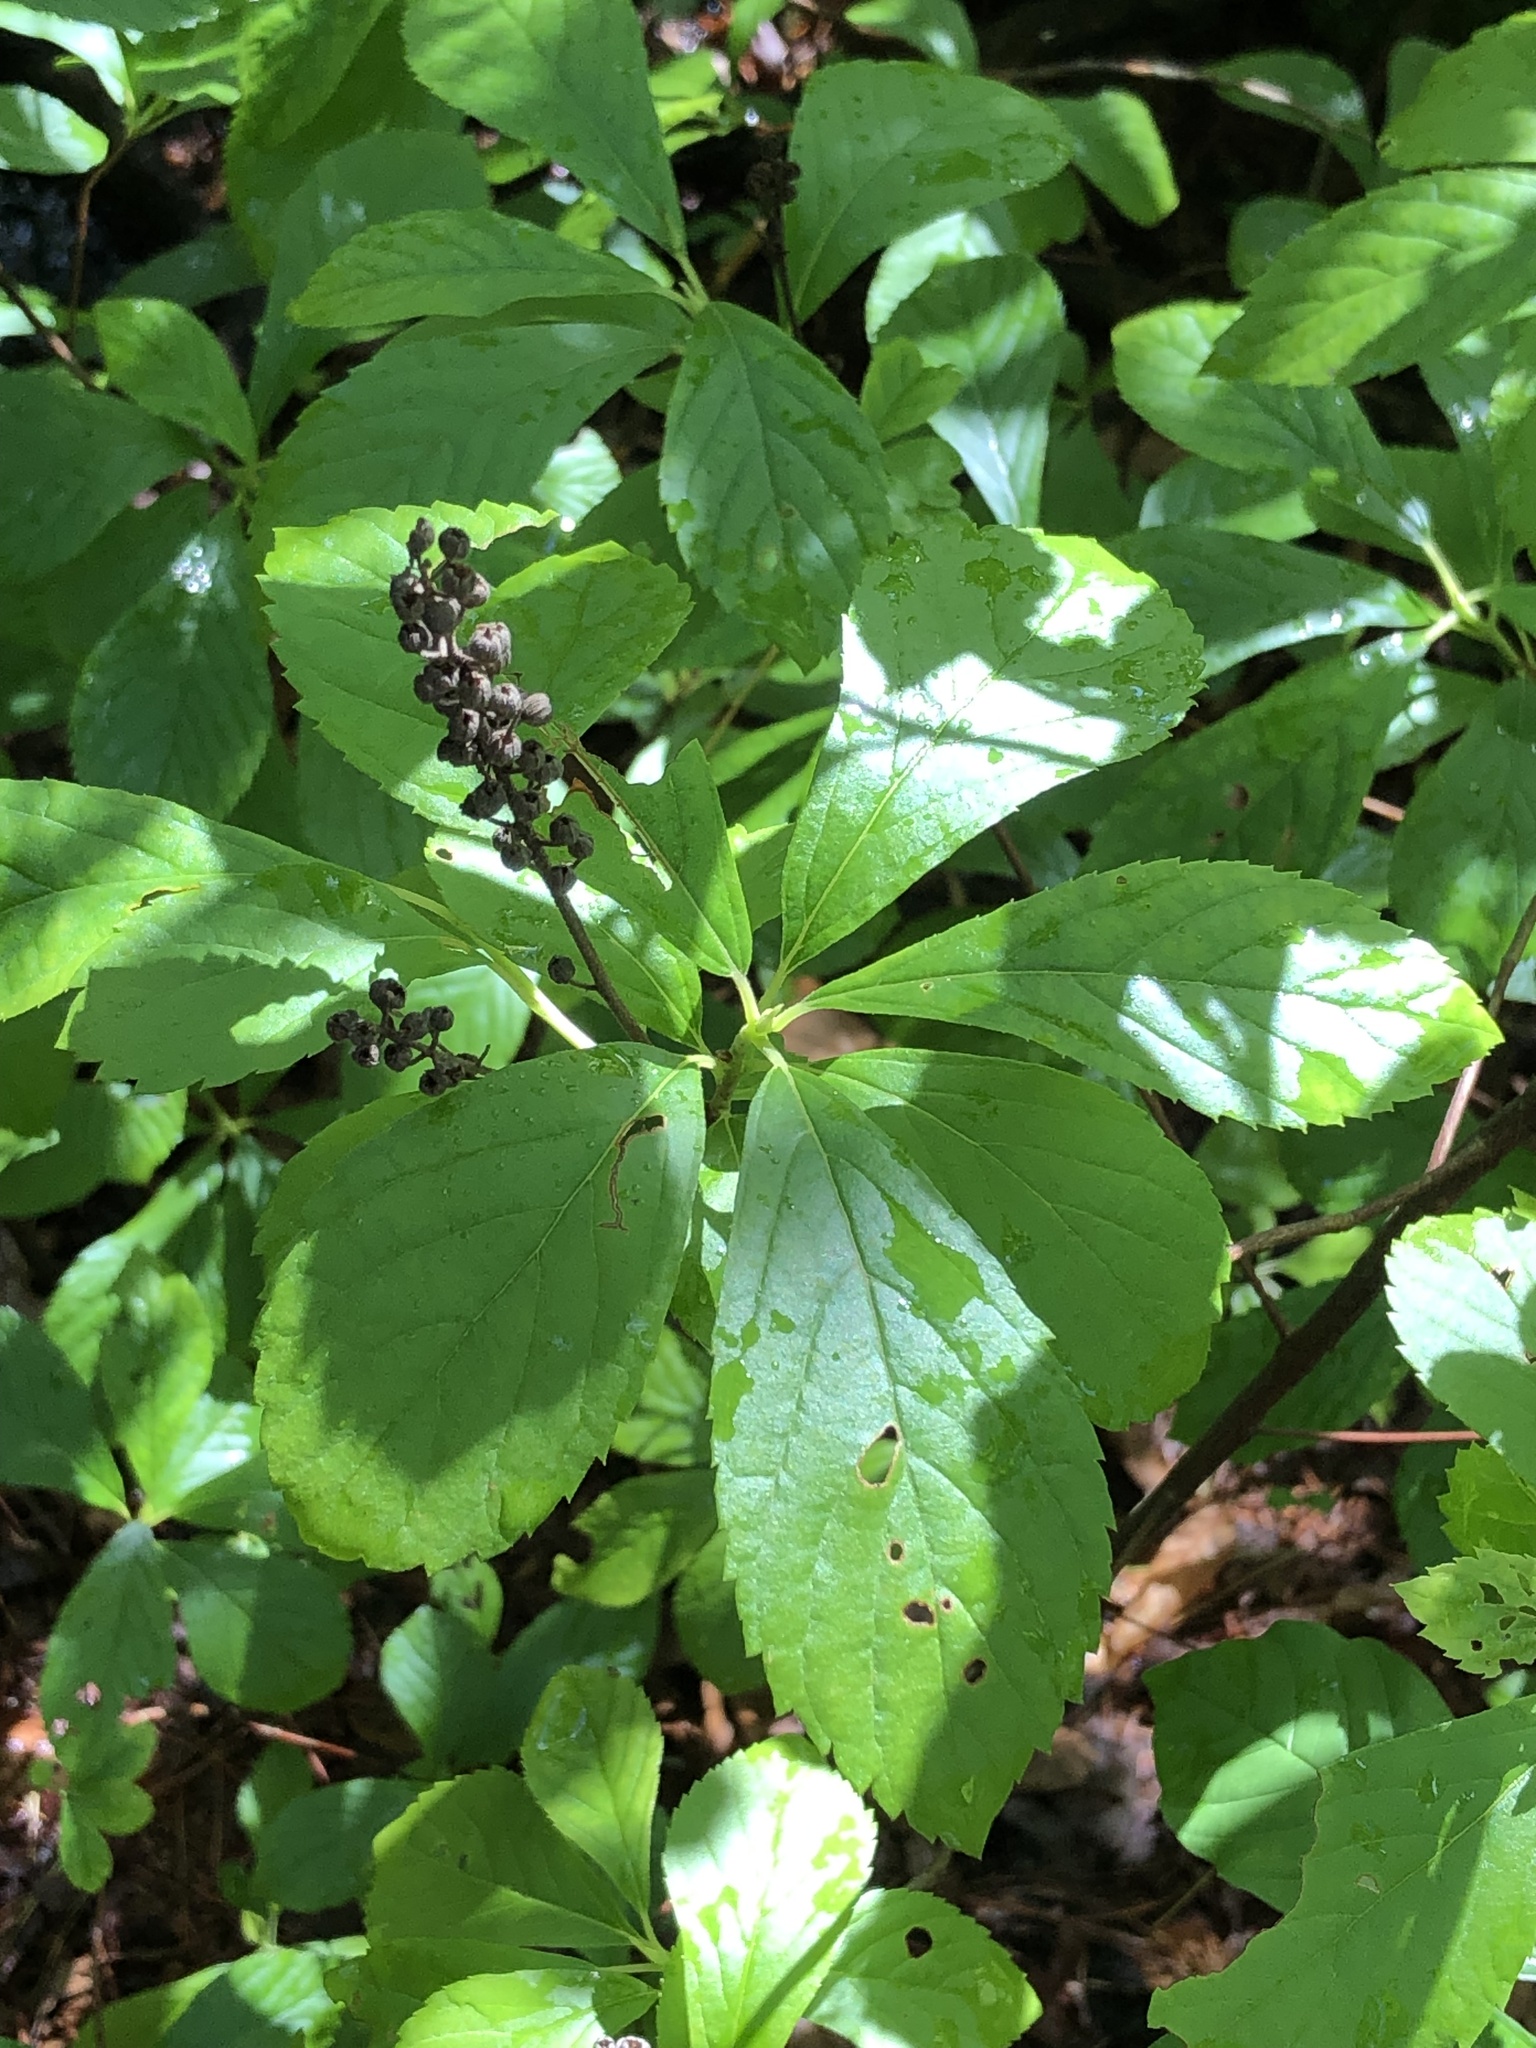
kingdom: Plantae
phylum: Tracheophyta
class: Magnoliopsida
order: Ericales
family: Clethraceae
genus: Clethra
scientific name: Clethra alnifolia
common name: Sweet pepperbush
